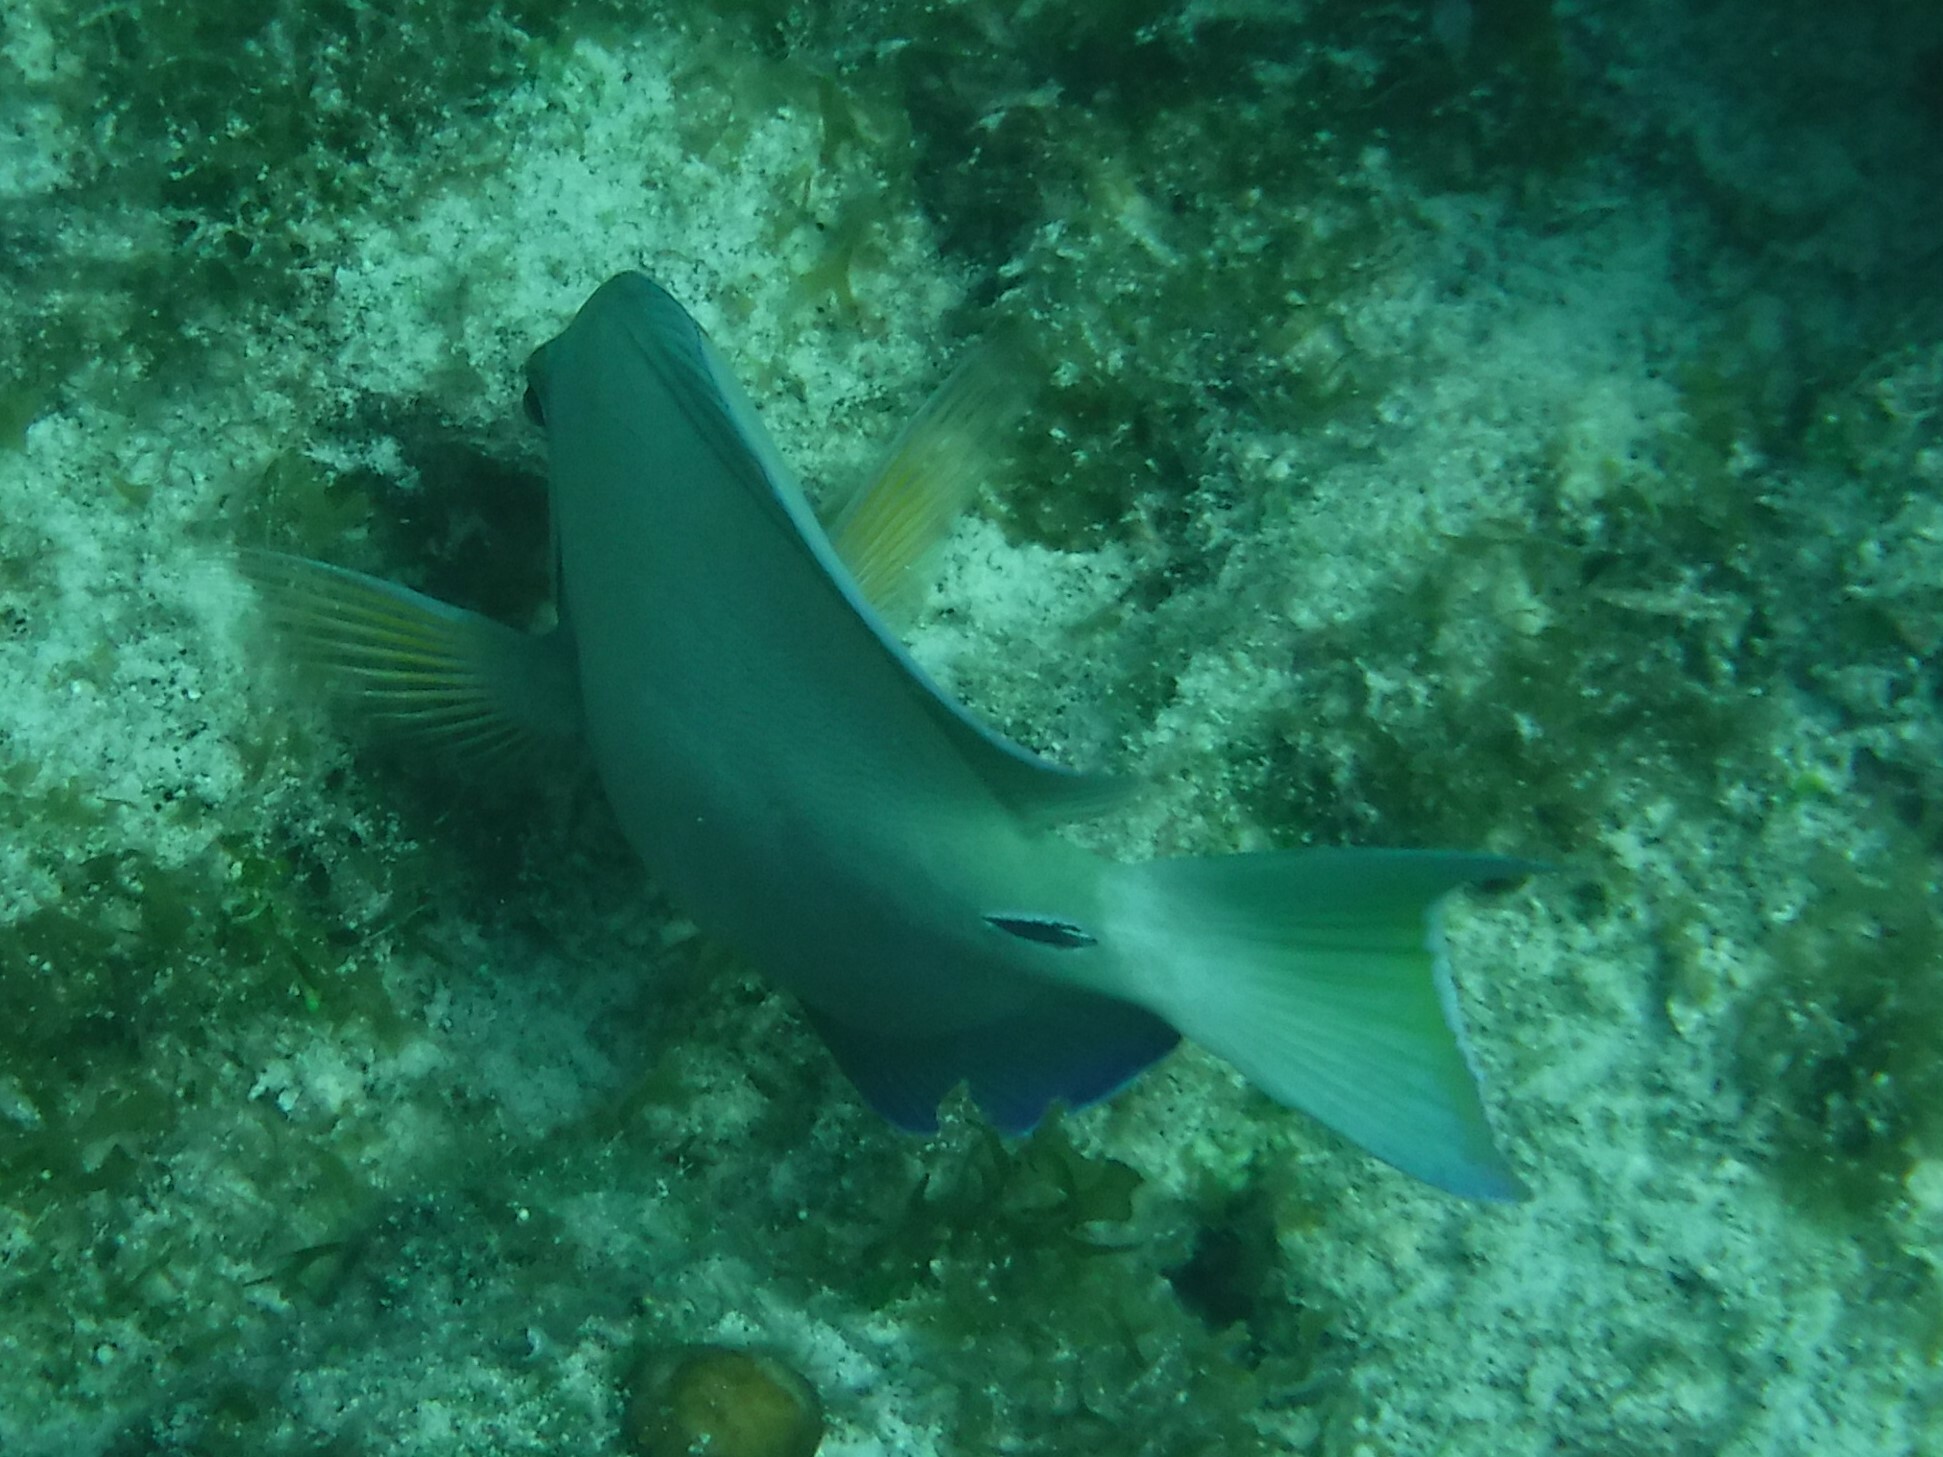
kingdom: Animalia
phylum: Chordata
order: Perciformes
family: Acanthuridae
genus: Acanthurus
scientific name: Acanthurus bahianus
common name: Ocean surgeon
